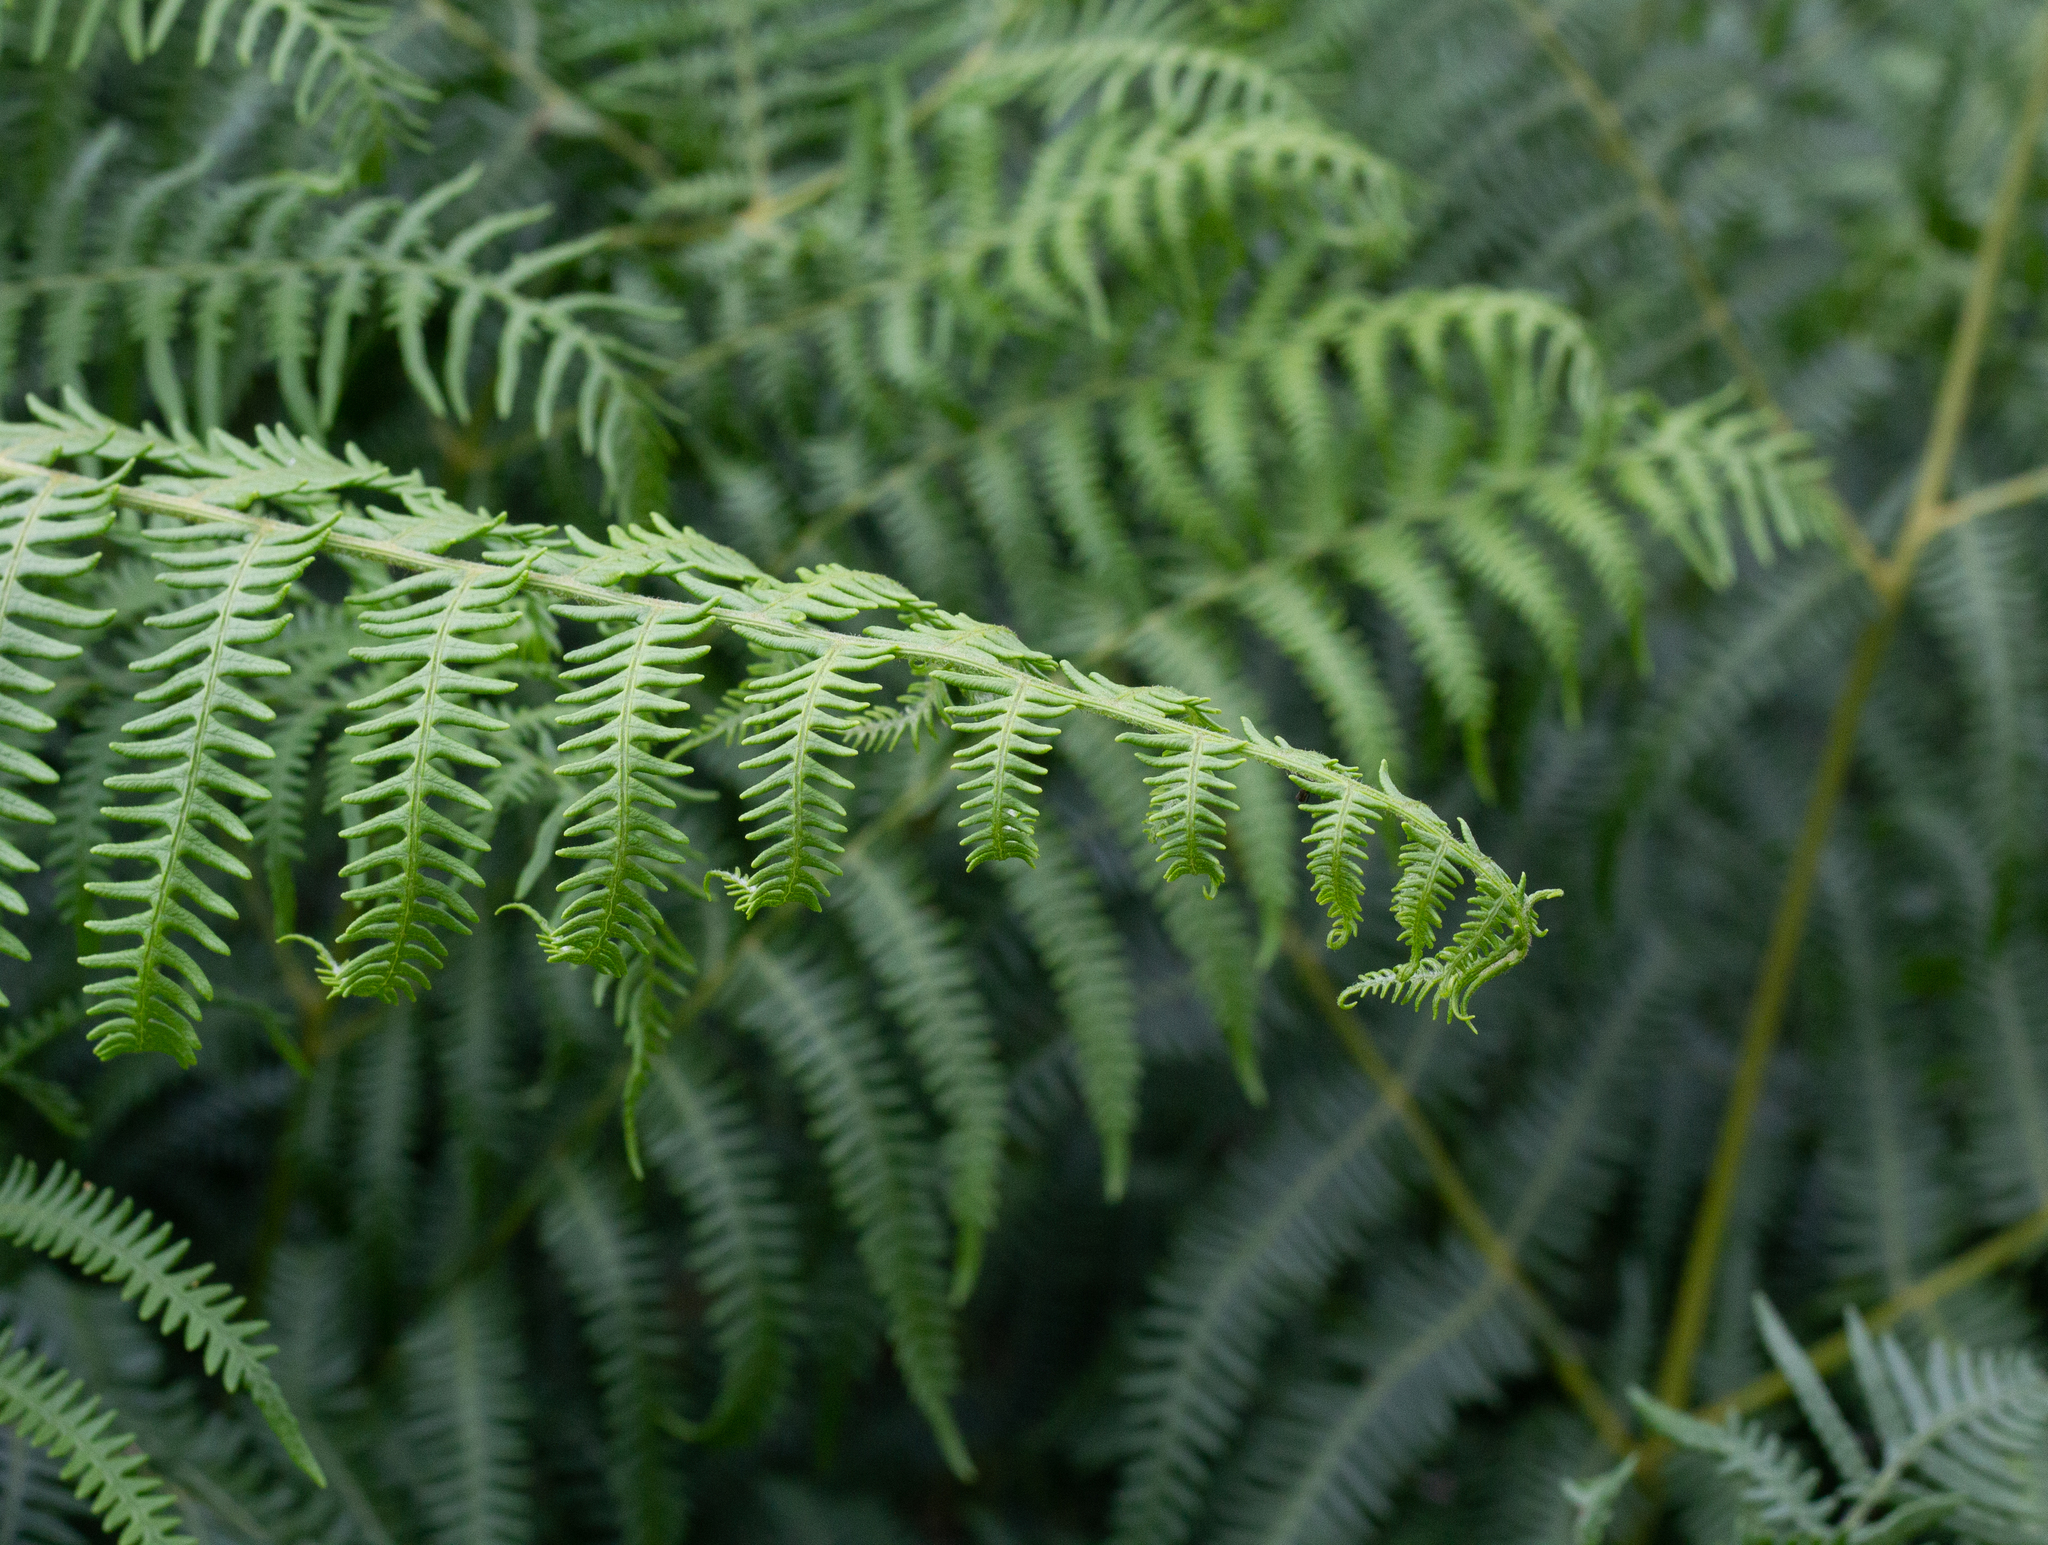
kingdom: Plantae
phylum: Tracheophyta
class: Polypodiopsida
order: Polypodiales
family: Dennstaedtiaceae
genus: Pteridium
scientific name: Pteridium aquilinum
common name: Bracken
